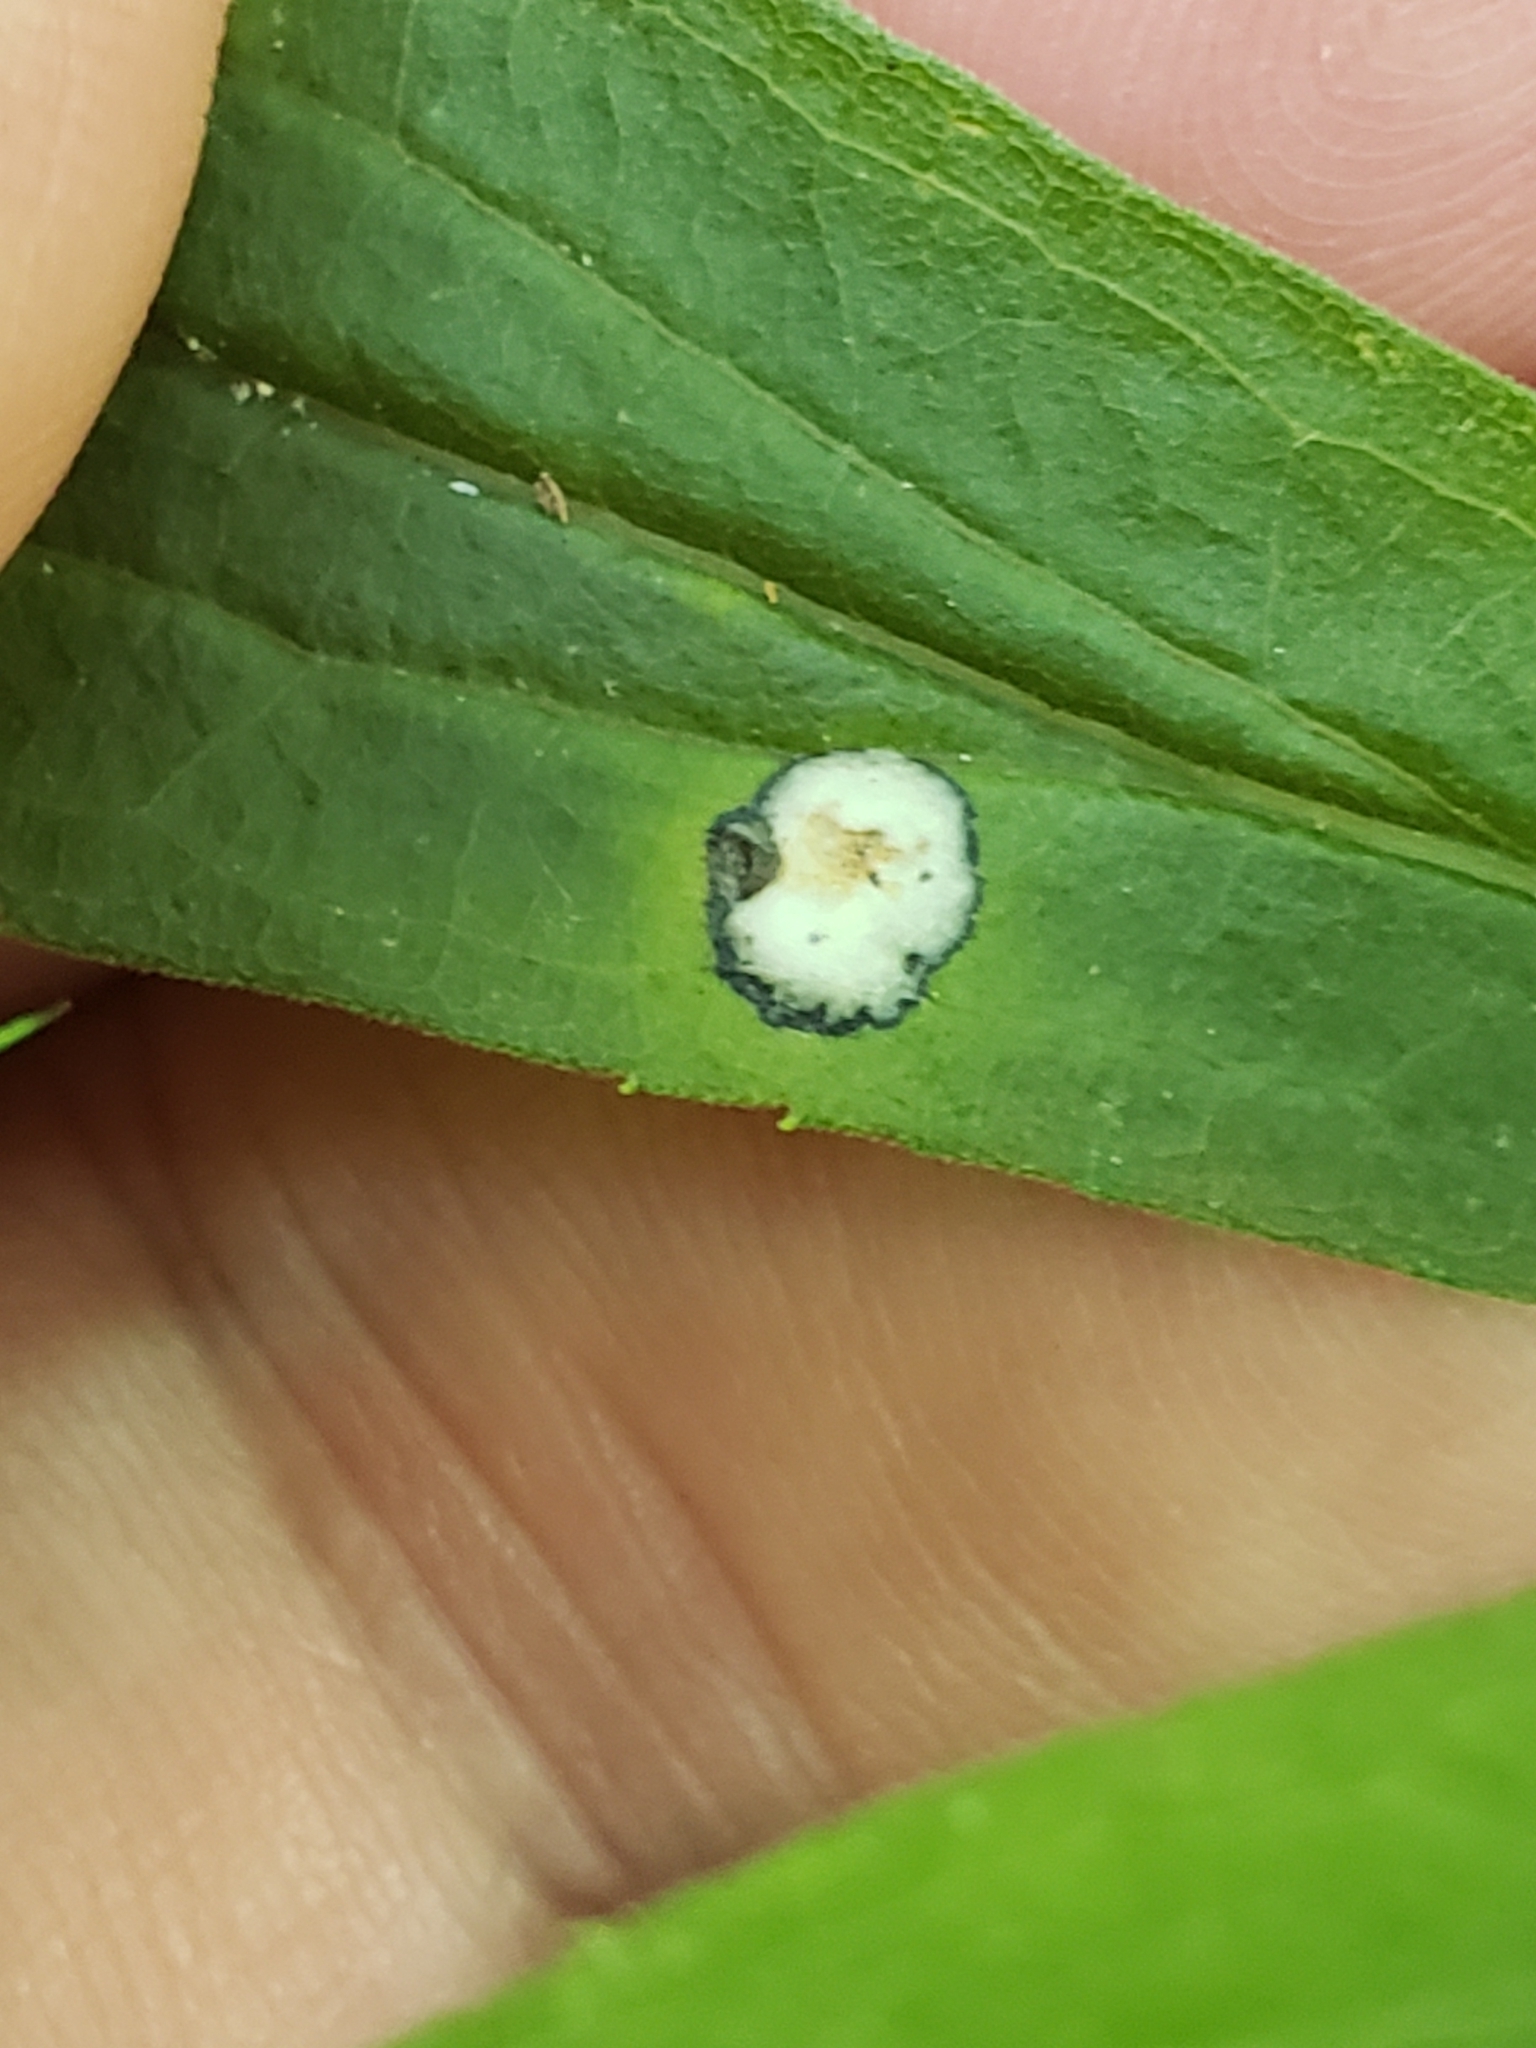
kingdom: Animalia
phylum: Arthropoda
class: Insecta
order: Diptera
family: Cecidomyiidae
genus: Asteromyia
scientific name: Asteromyia carbonifera
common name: Carbonifera goldenrod gall midge
